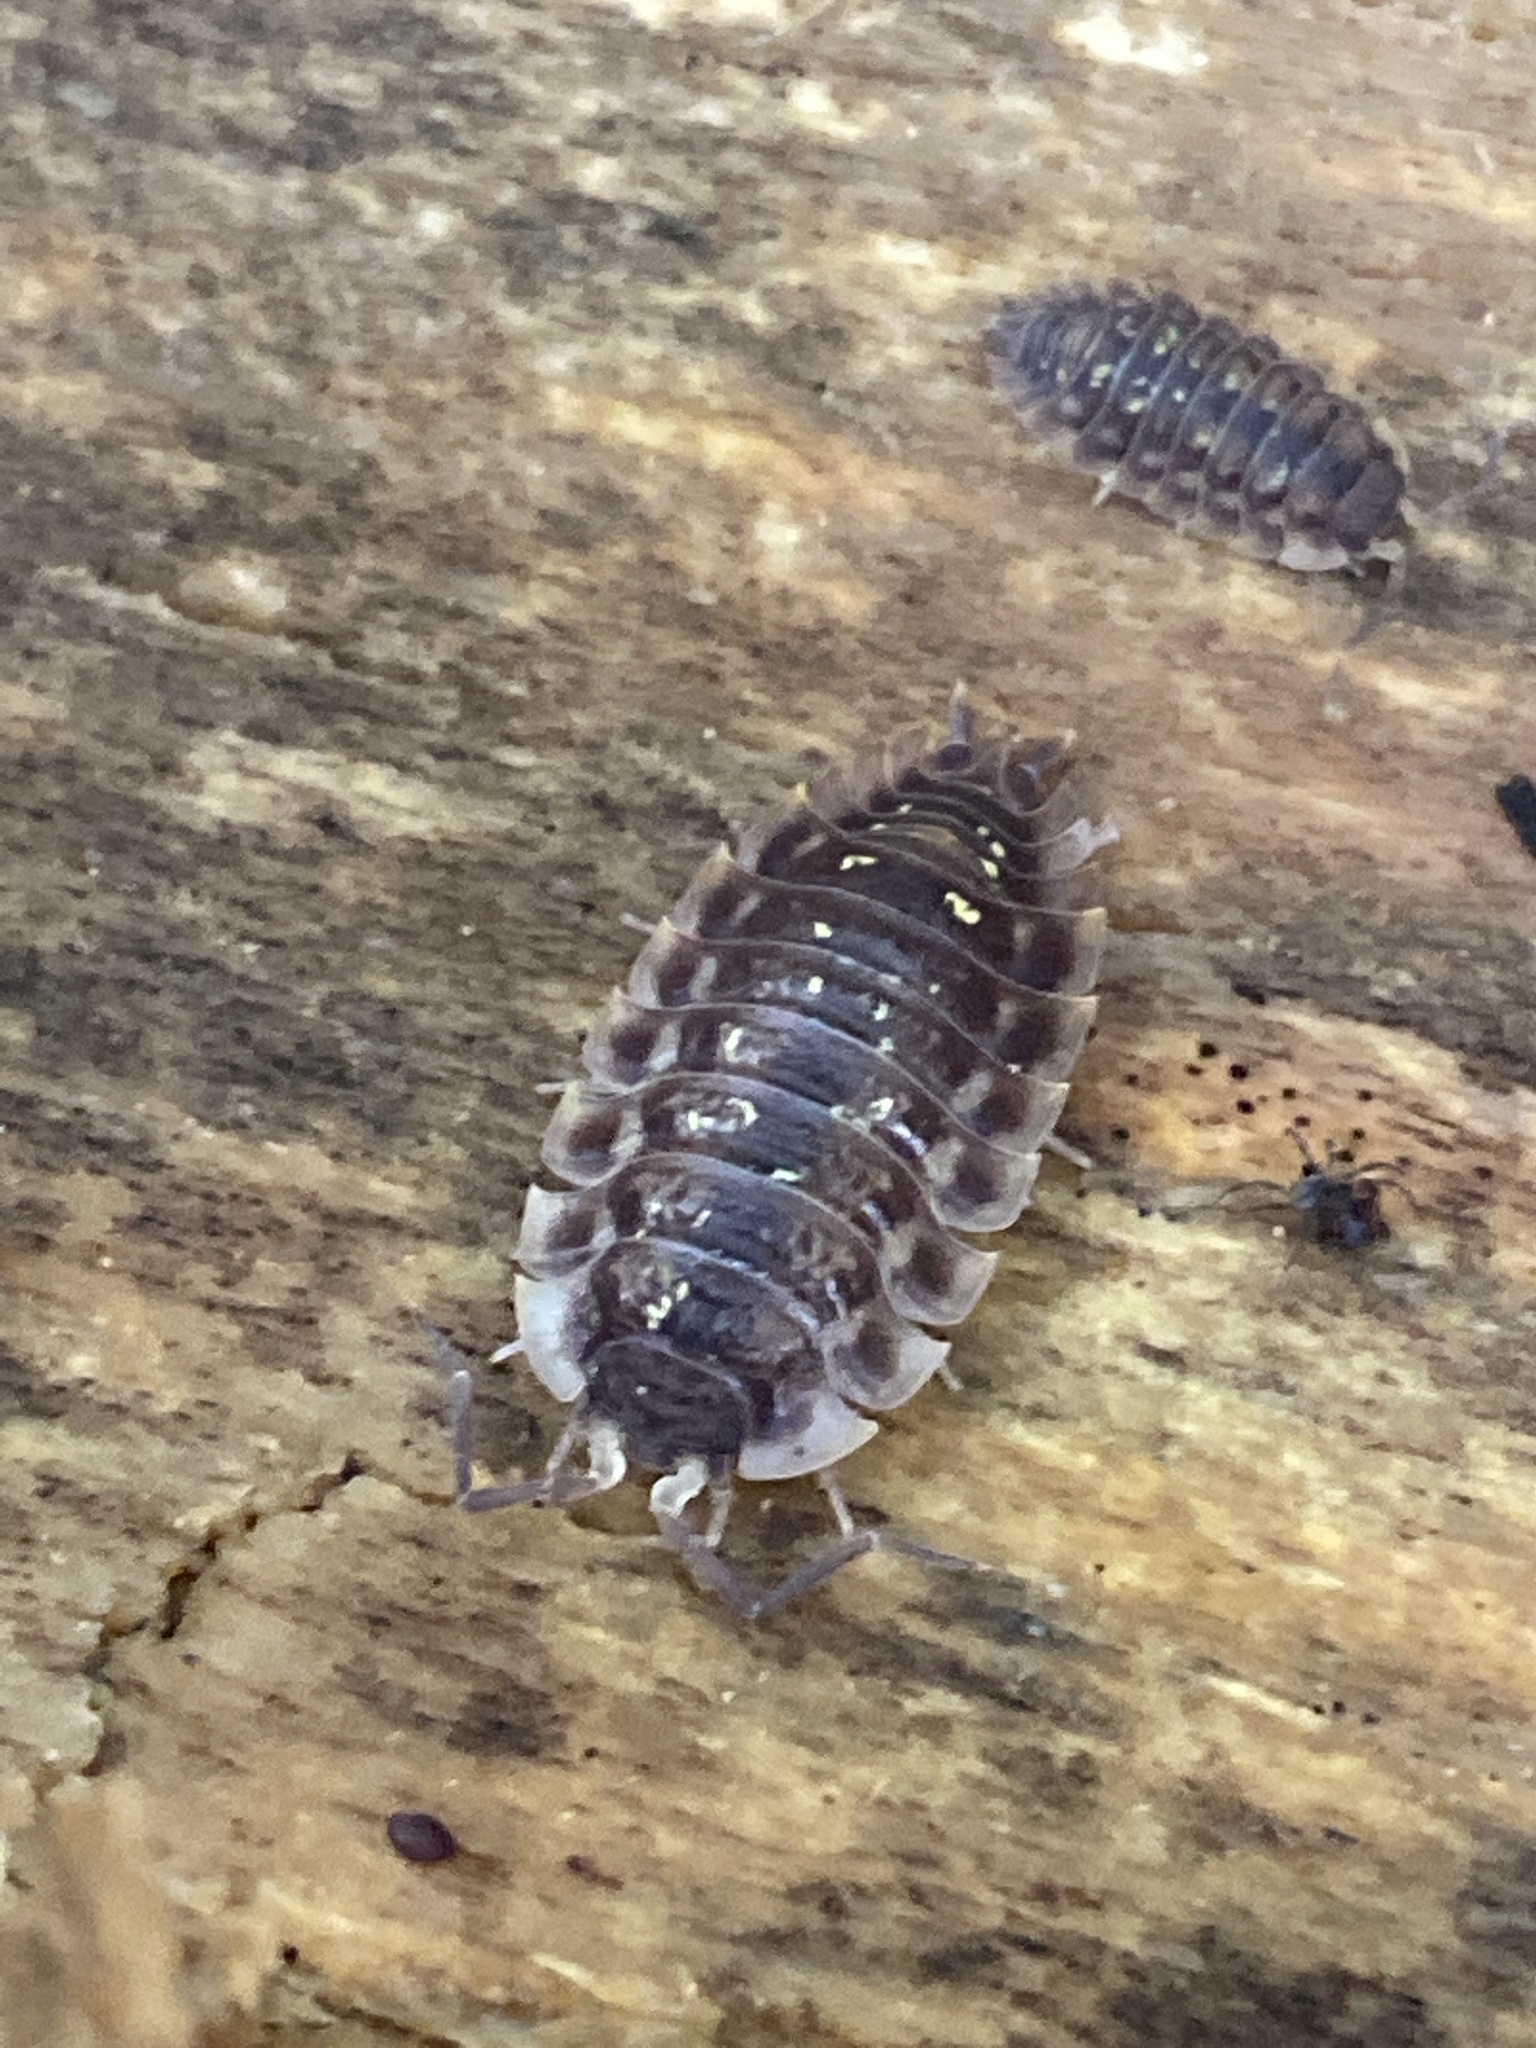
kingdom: Animalia
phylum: Arthropoda
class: Malacostraca
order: Isopoda
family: Oniscidae
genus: Oniscus
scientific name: Oniscus asellus
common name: Common shiny woodlouse
